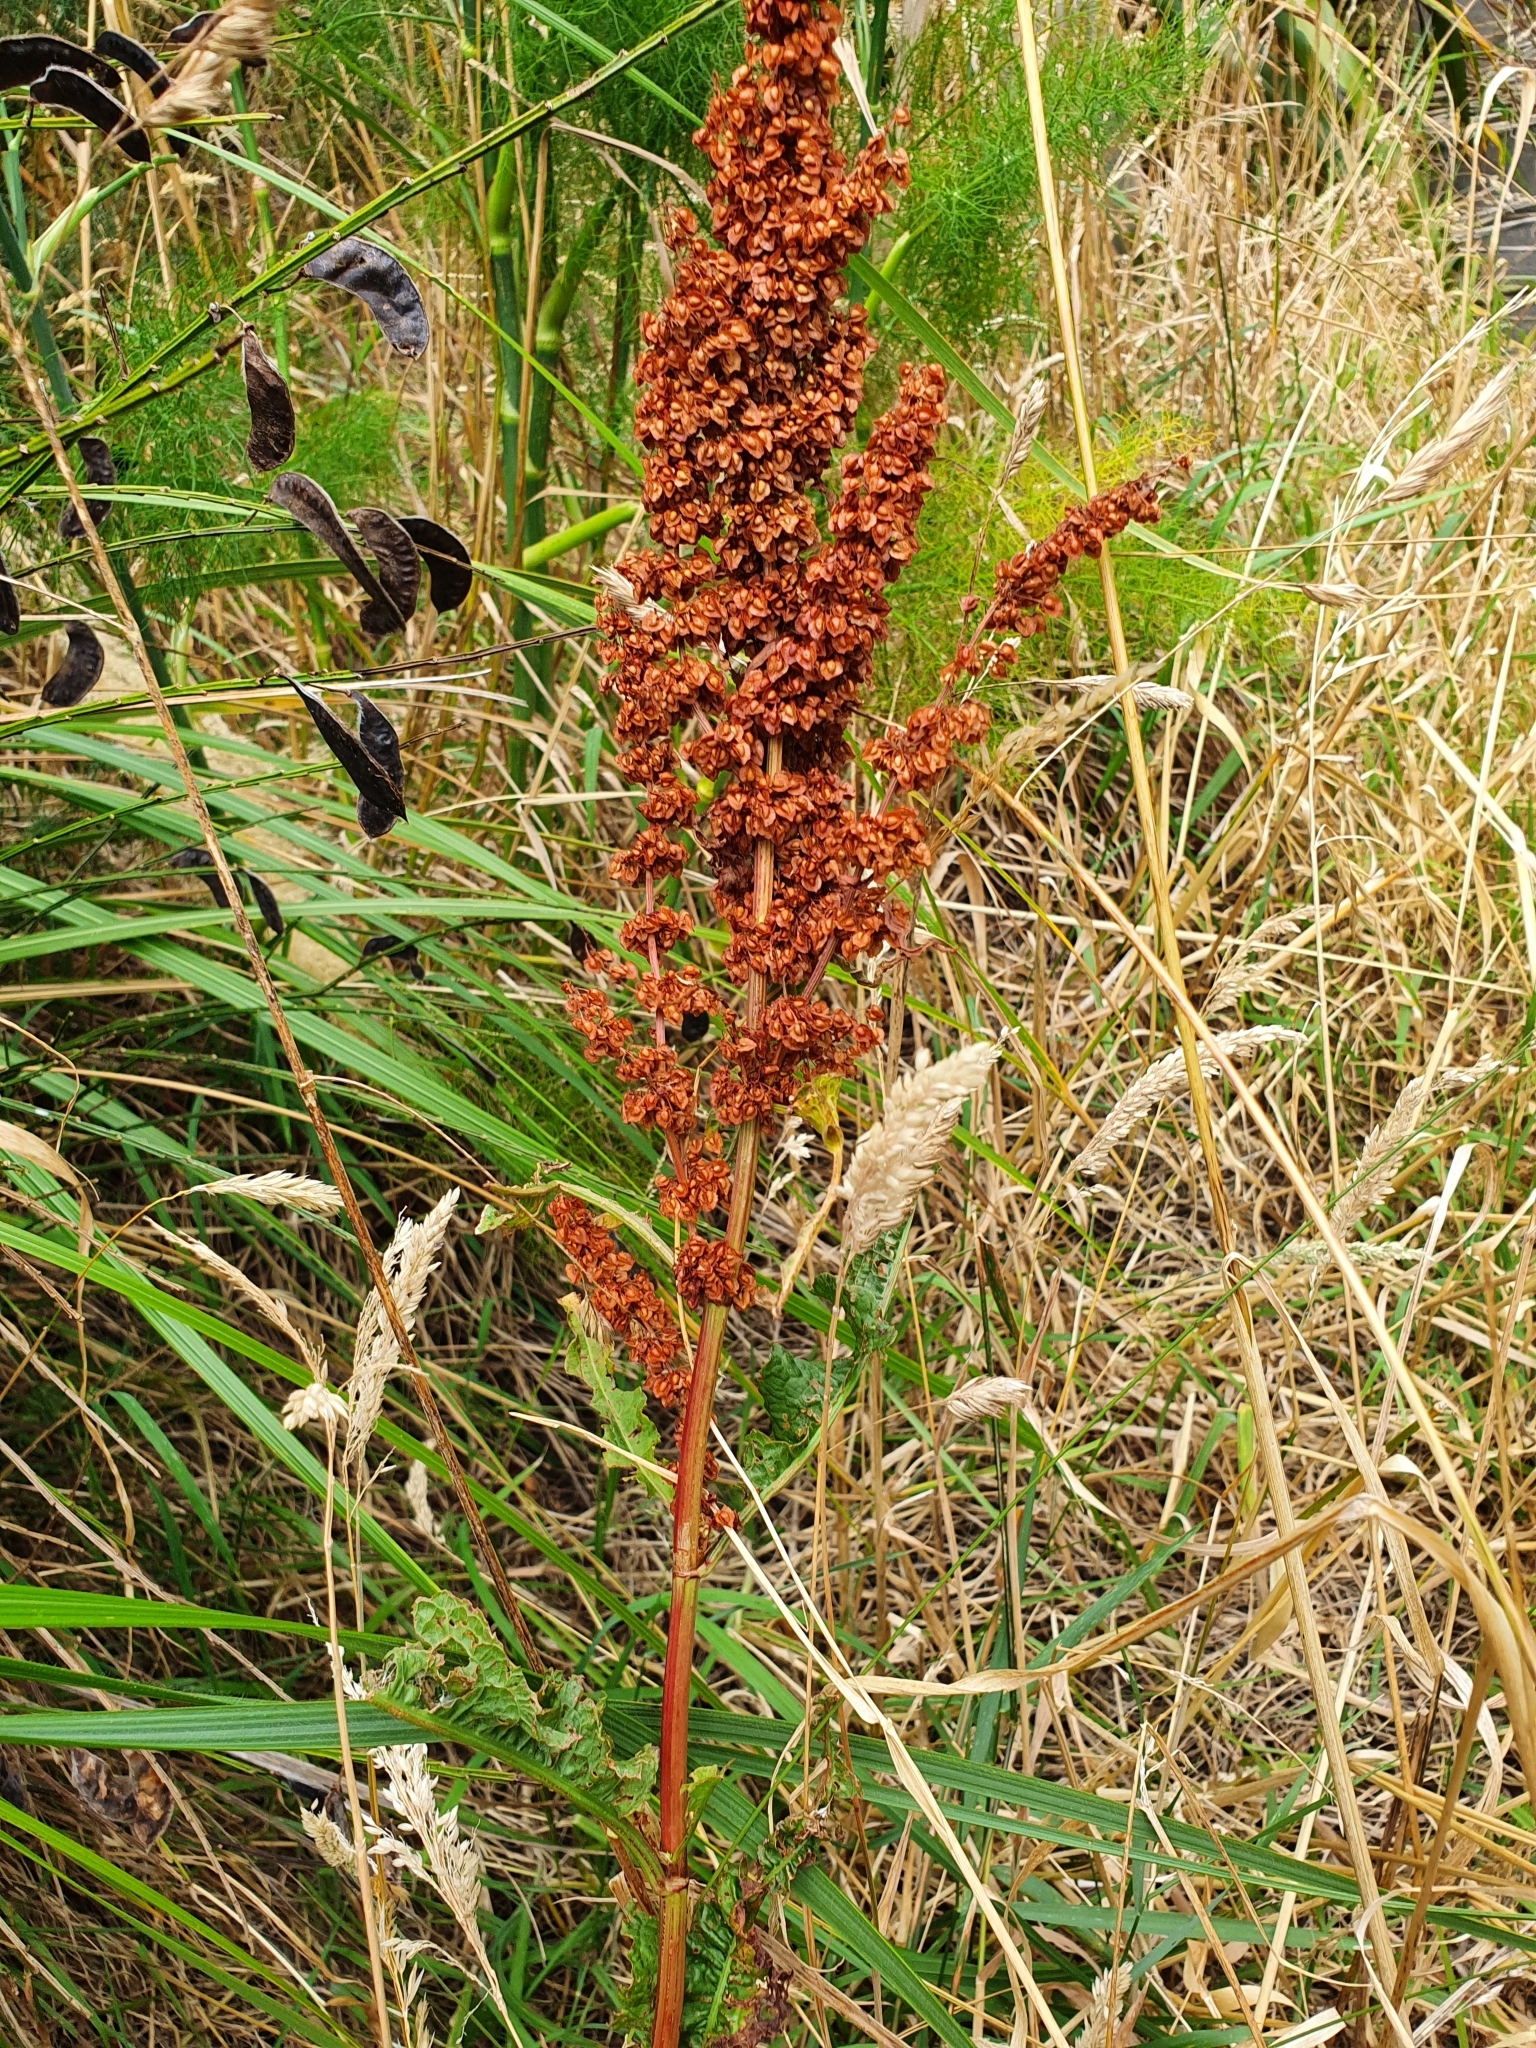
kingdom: Plantae
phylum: Tracheophyta
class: Magnoliopsida
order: Caryophyllales
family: Polygonaceae
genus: Rumex
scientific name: Rumex crispus
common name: Curled dock
